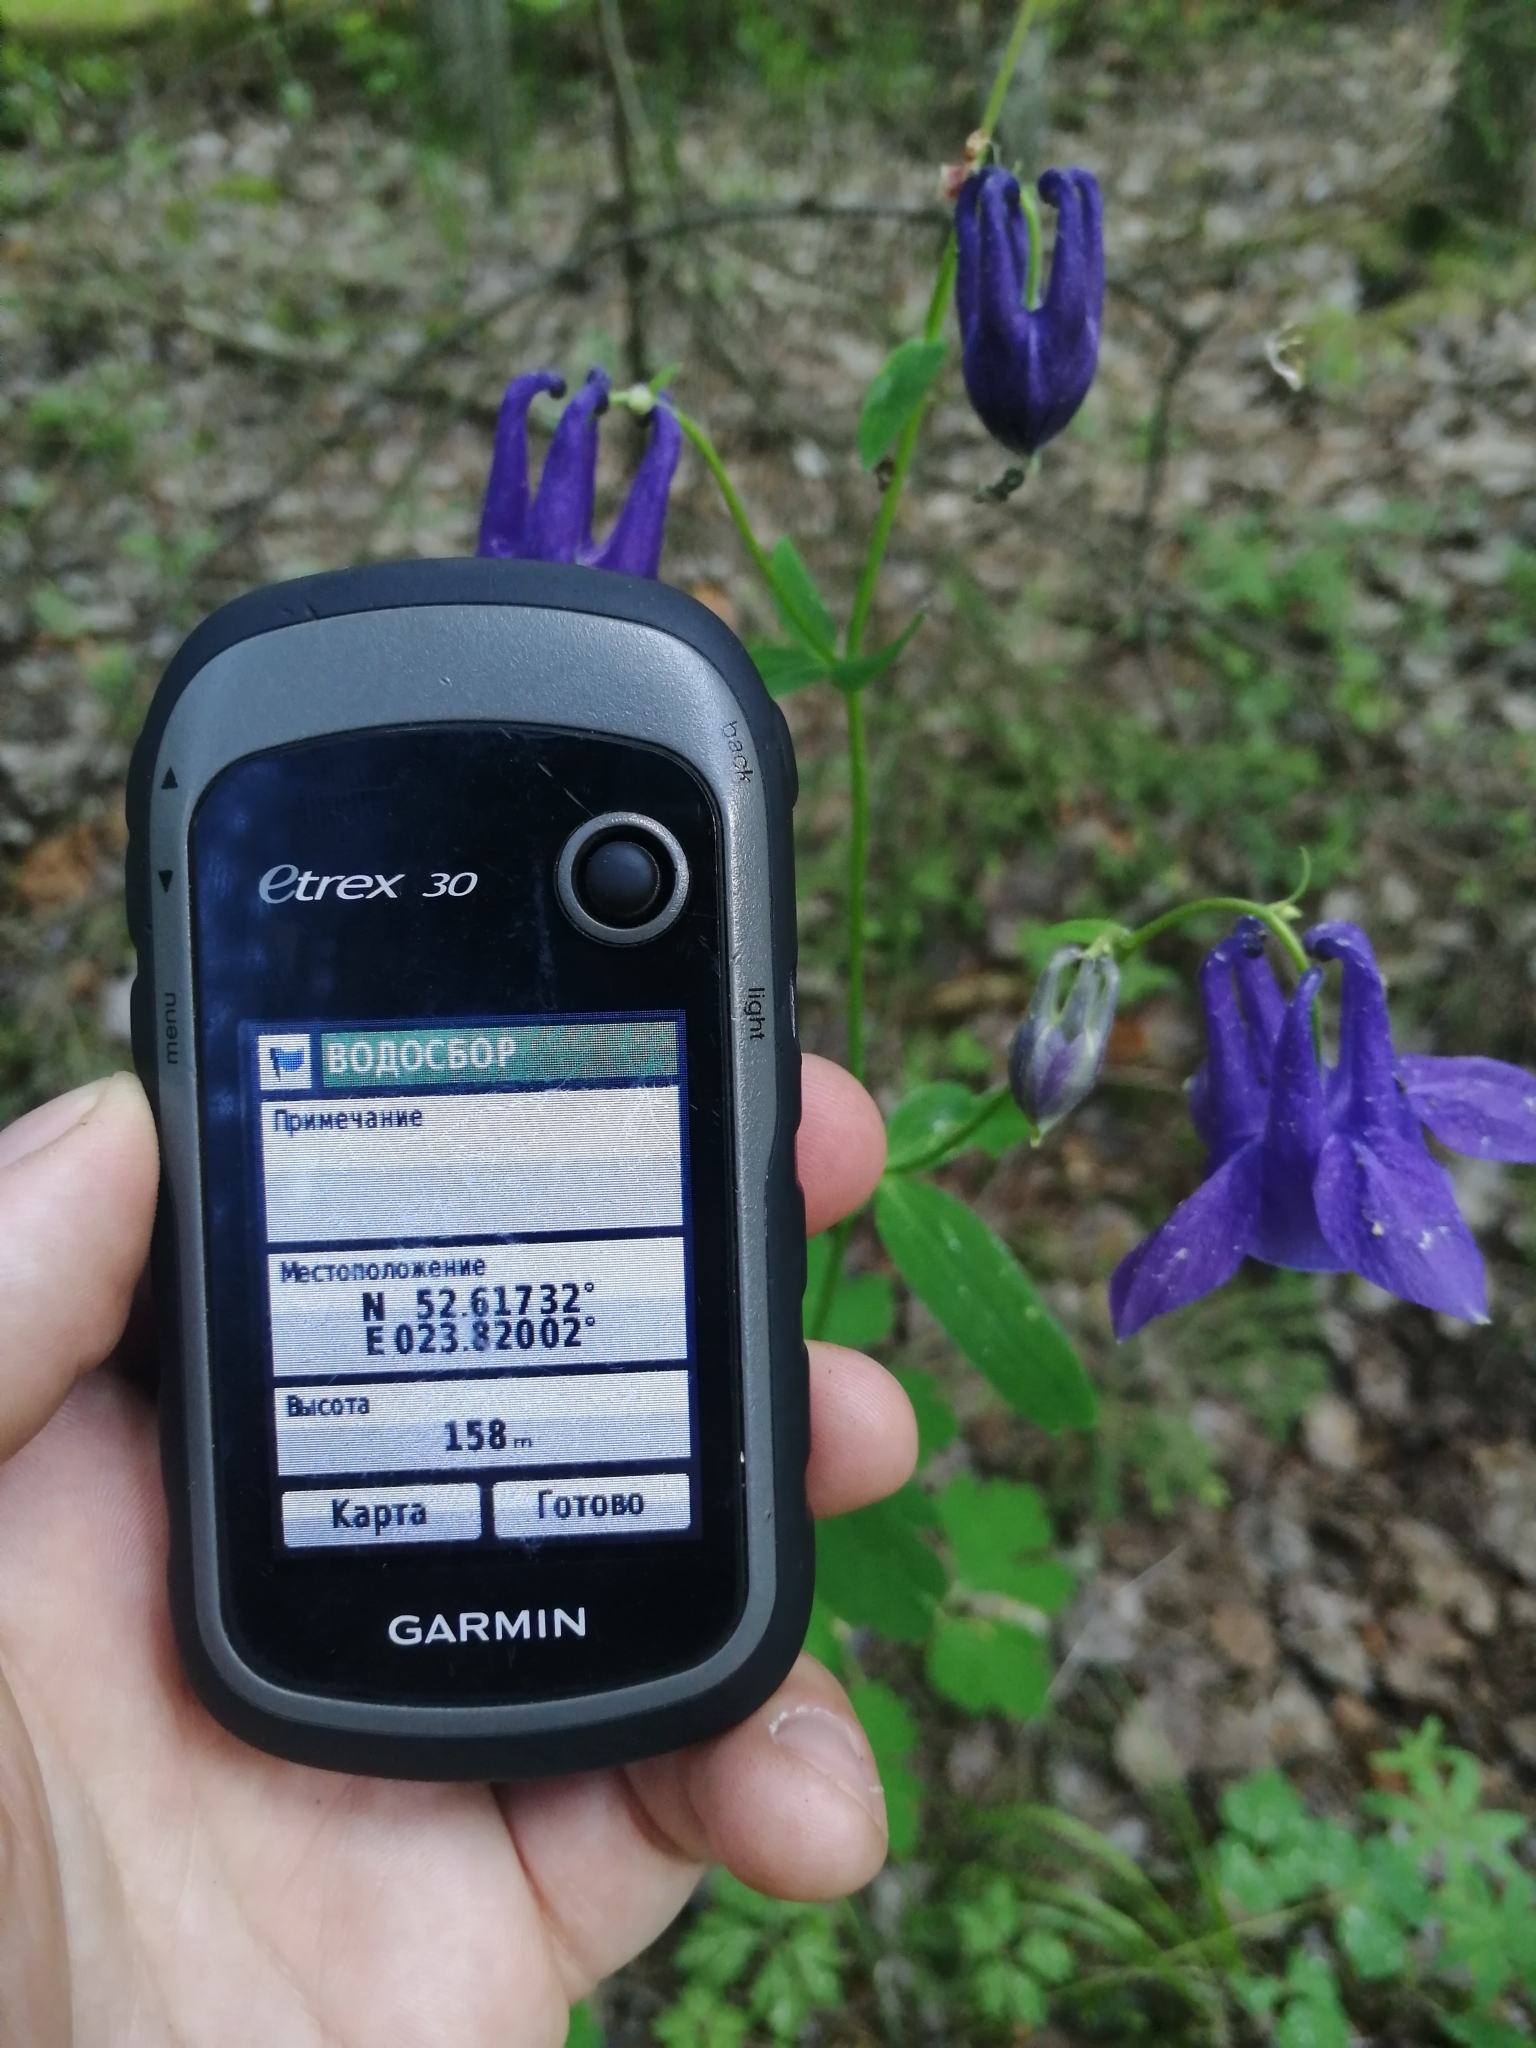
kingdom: Plantae
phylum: Tracheophyta
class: Magnoliopsida
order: Ranunculales
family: Ranunculaceae
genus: Aquilegia
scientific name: Aquilegia vulgaris
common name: Columbine
